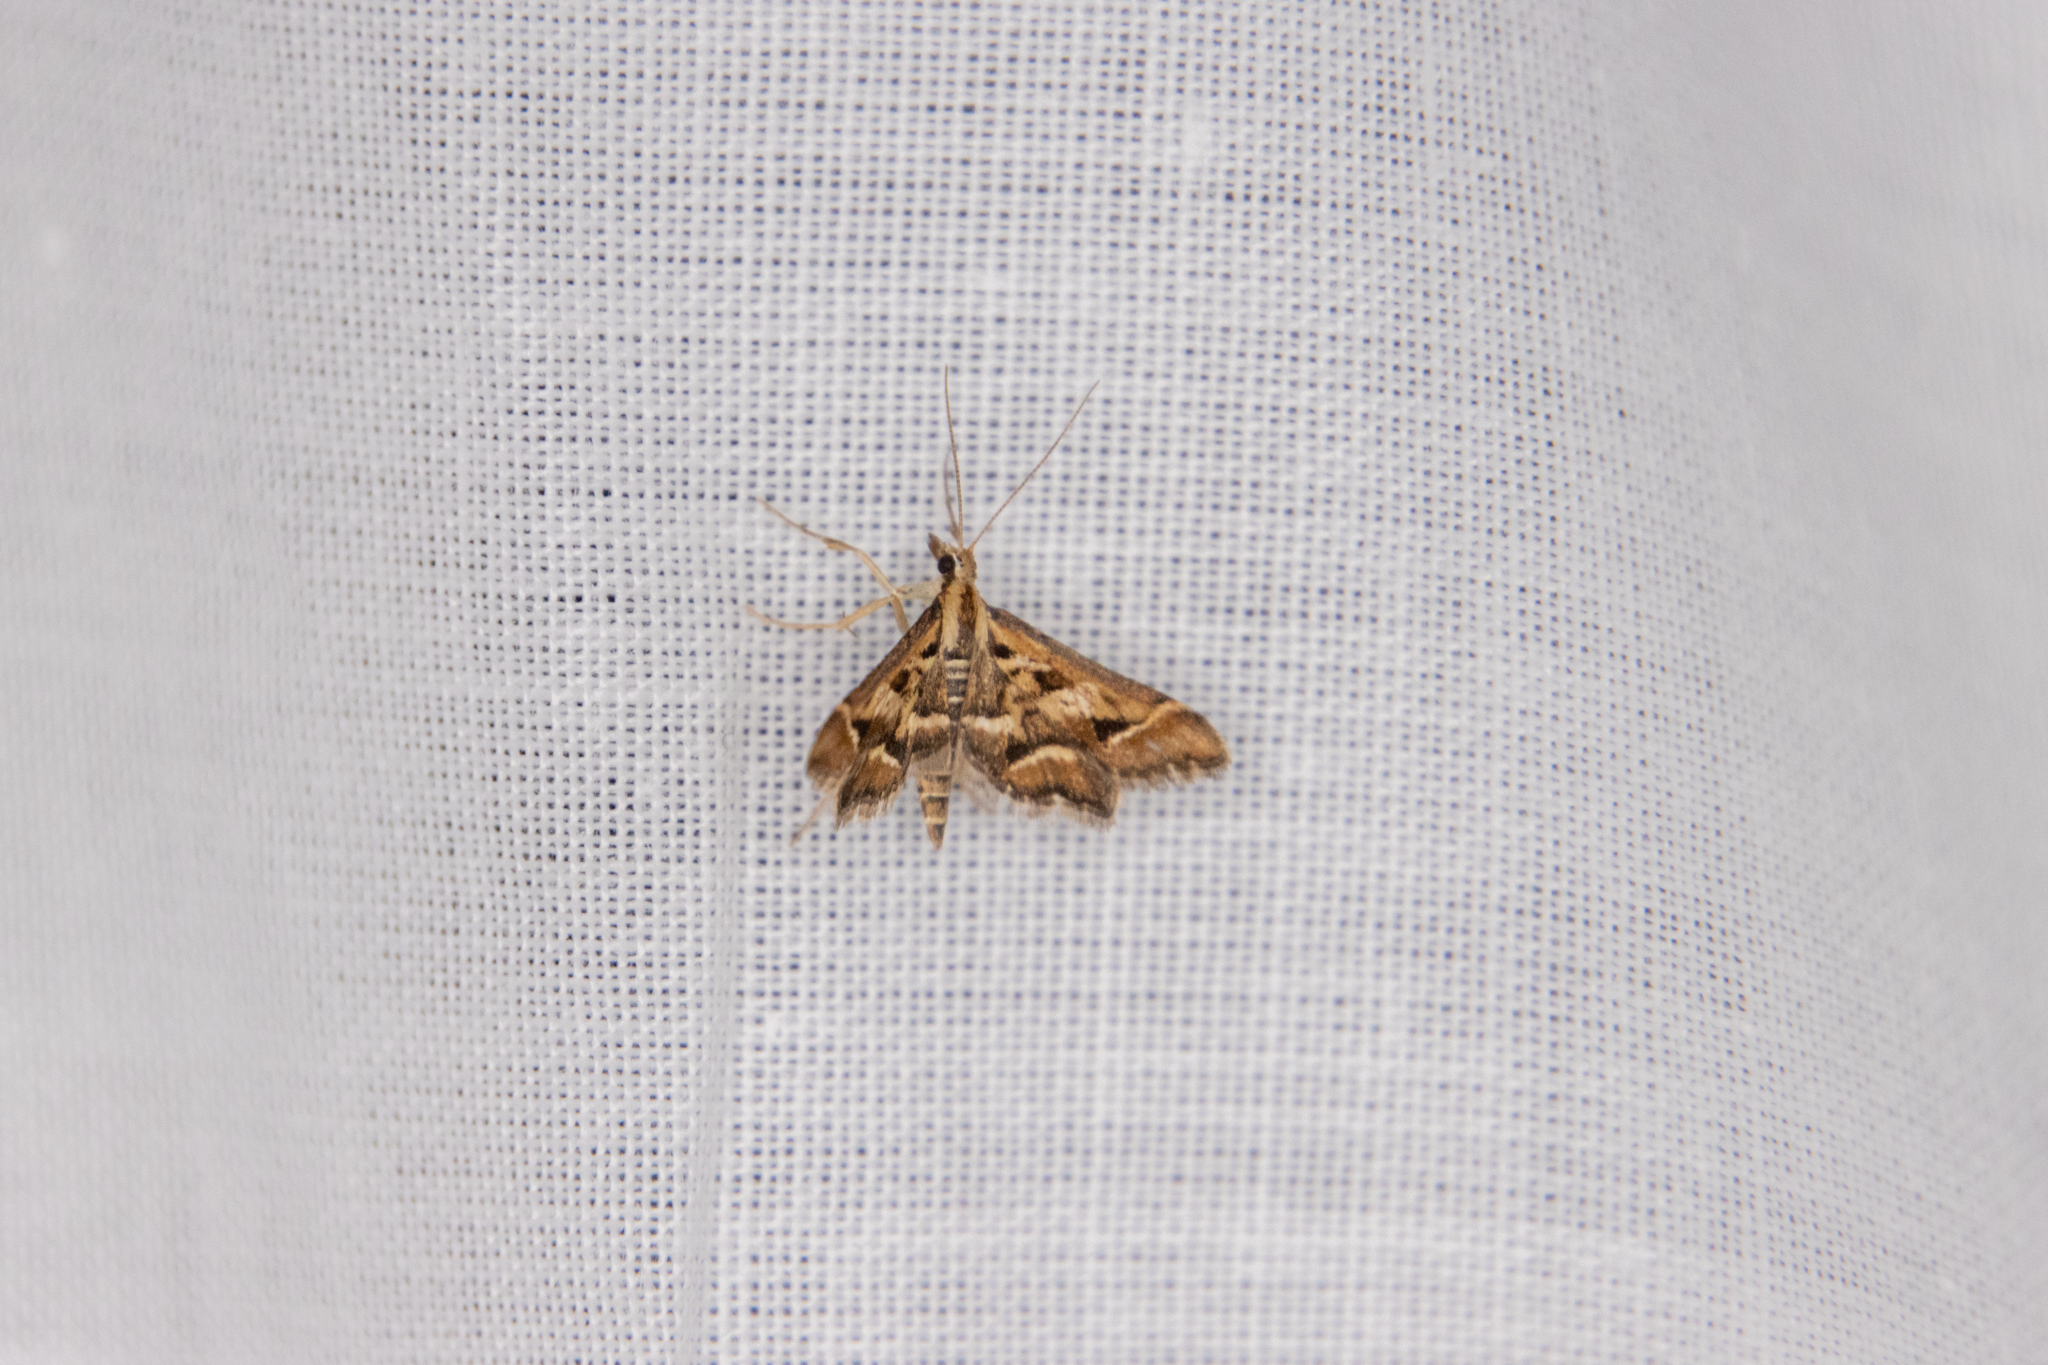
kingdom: Animalia
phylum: Arthropoda
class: Insecta
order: Lepidoptera
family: Crambidae
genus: Diasemia
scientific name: Diasemia grammalis
